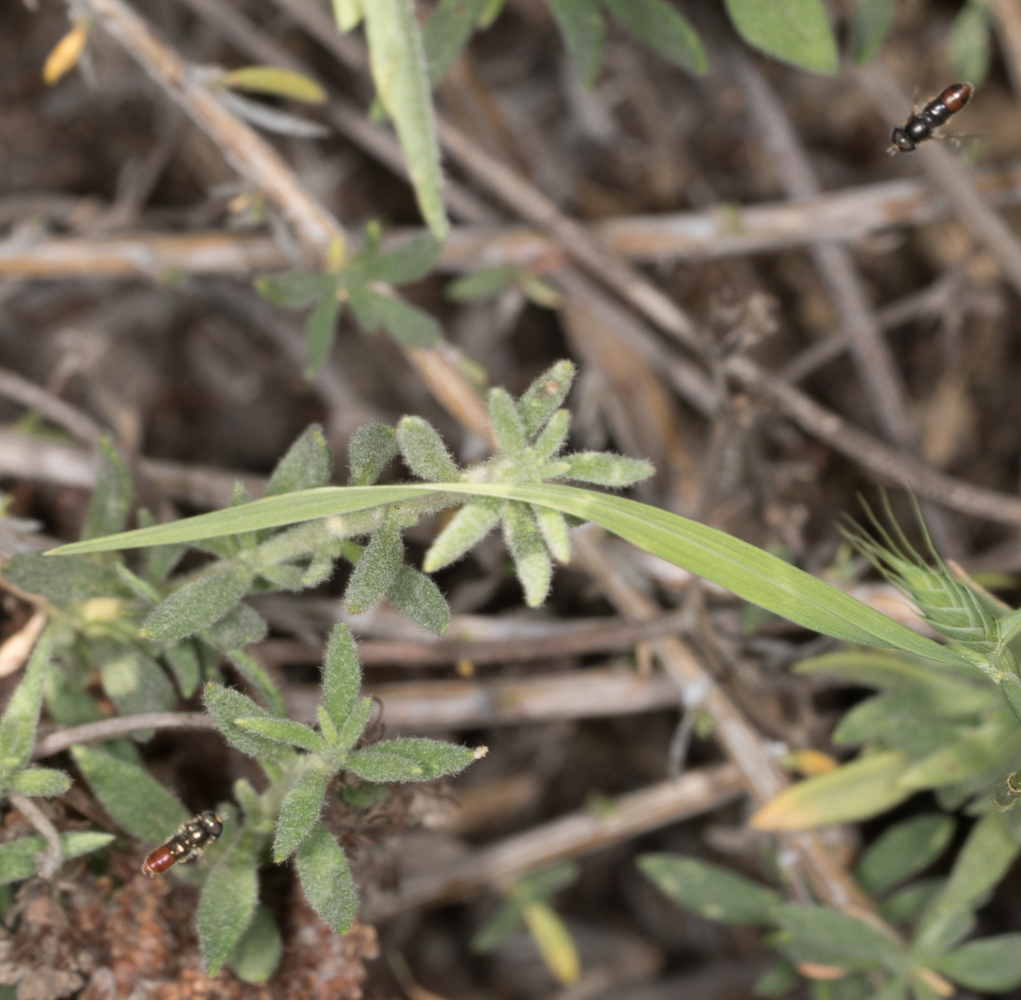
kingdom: Animalia
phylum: Arthropoda
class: Insecta
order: Diptera
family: Syrphidae
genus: Paragus
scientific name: Paragus haemorrhous
